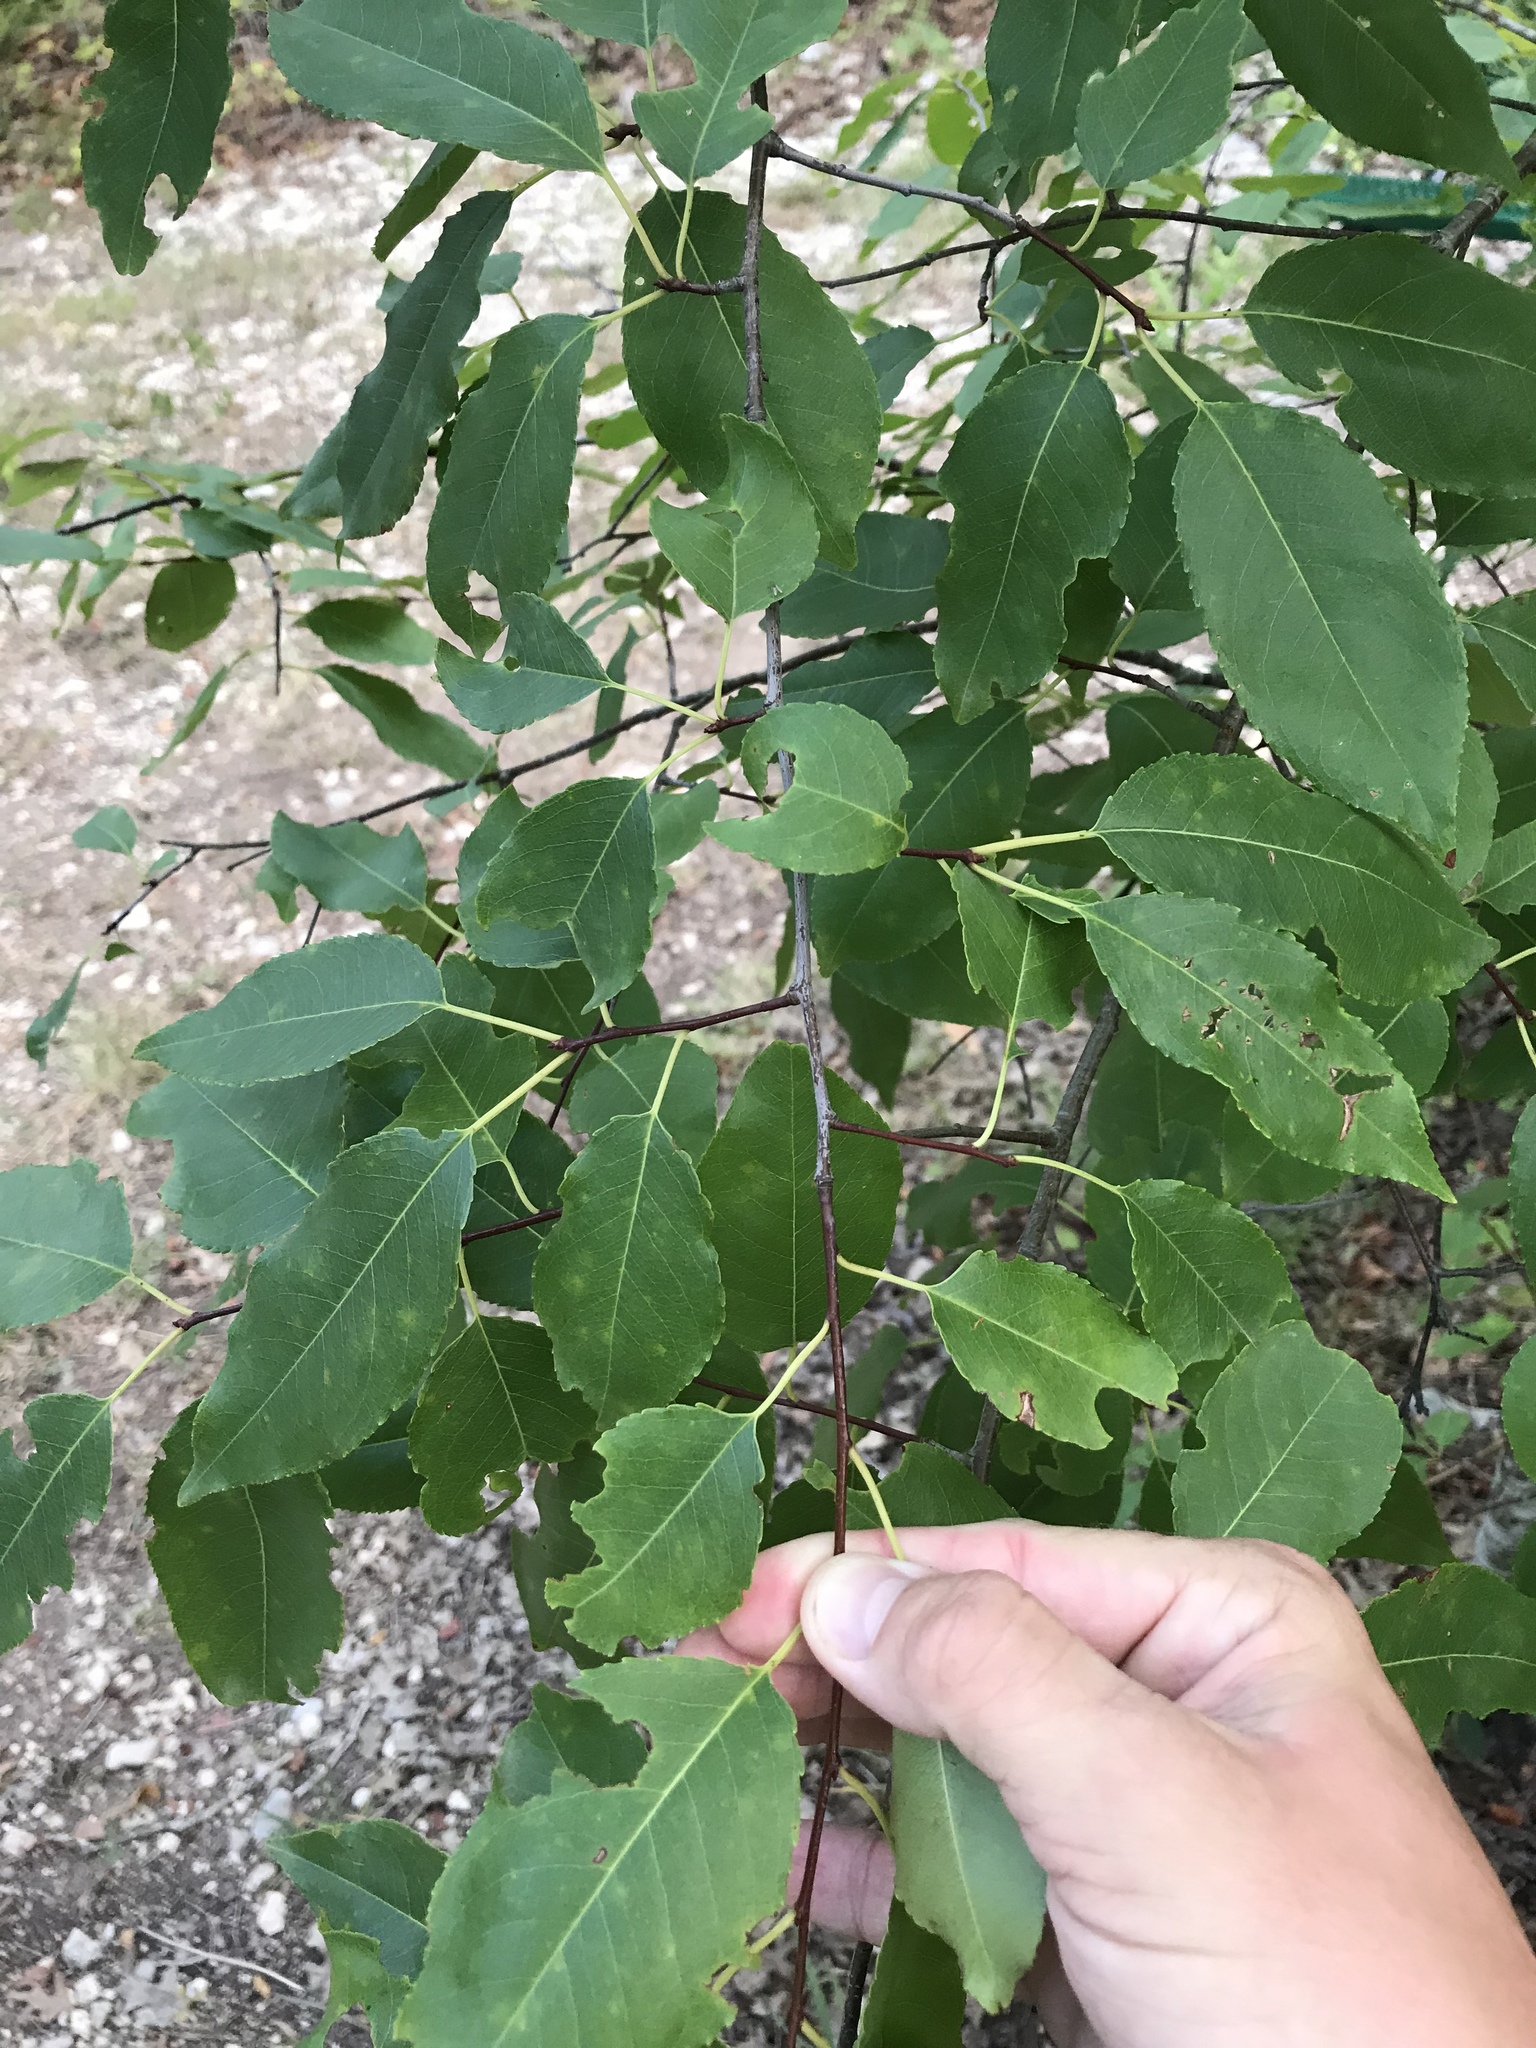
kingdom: Plantae
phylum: Tracheophyta
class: Magnoliopsida
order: Rosales
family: Rosaceae
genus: Prunus
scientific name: Prunus serotina
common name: Black cherry
